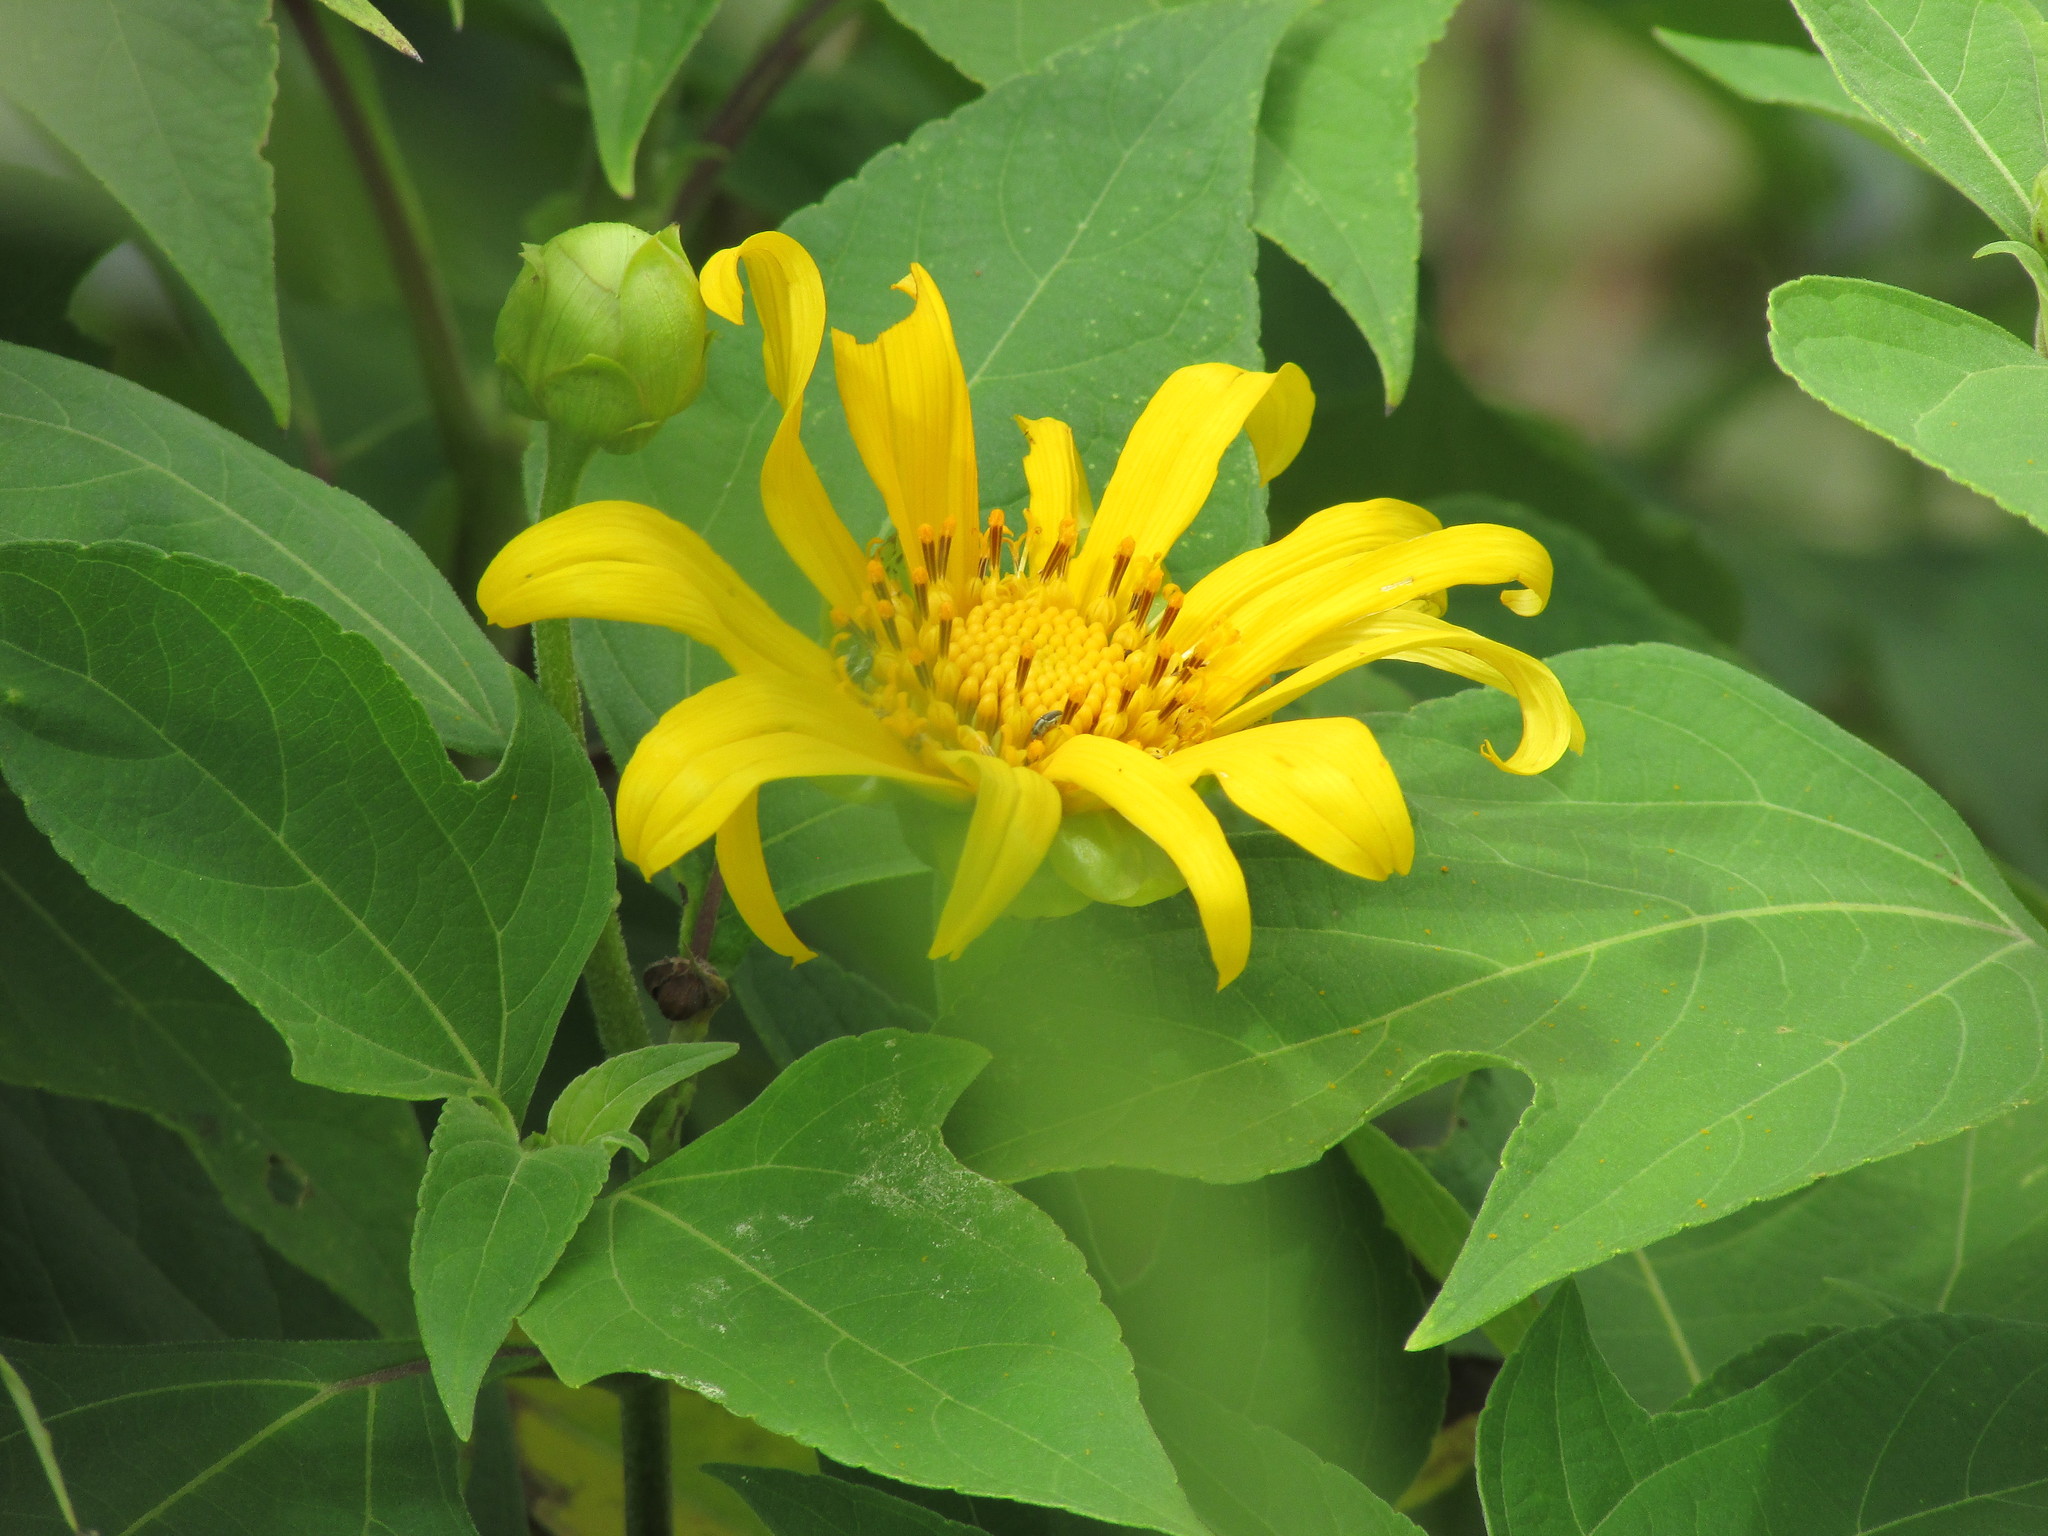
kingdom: Plantae
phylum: Tracheophyta
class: Magnoliopsida
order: Asterales
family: Asteraceae
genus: Tithonia
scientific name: Tithonia diversifolia
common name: Tree marigold
